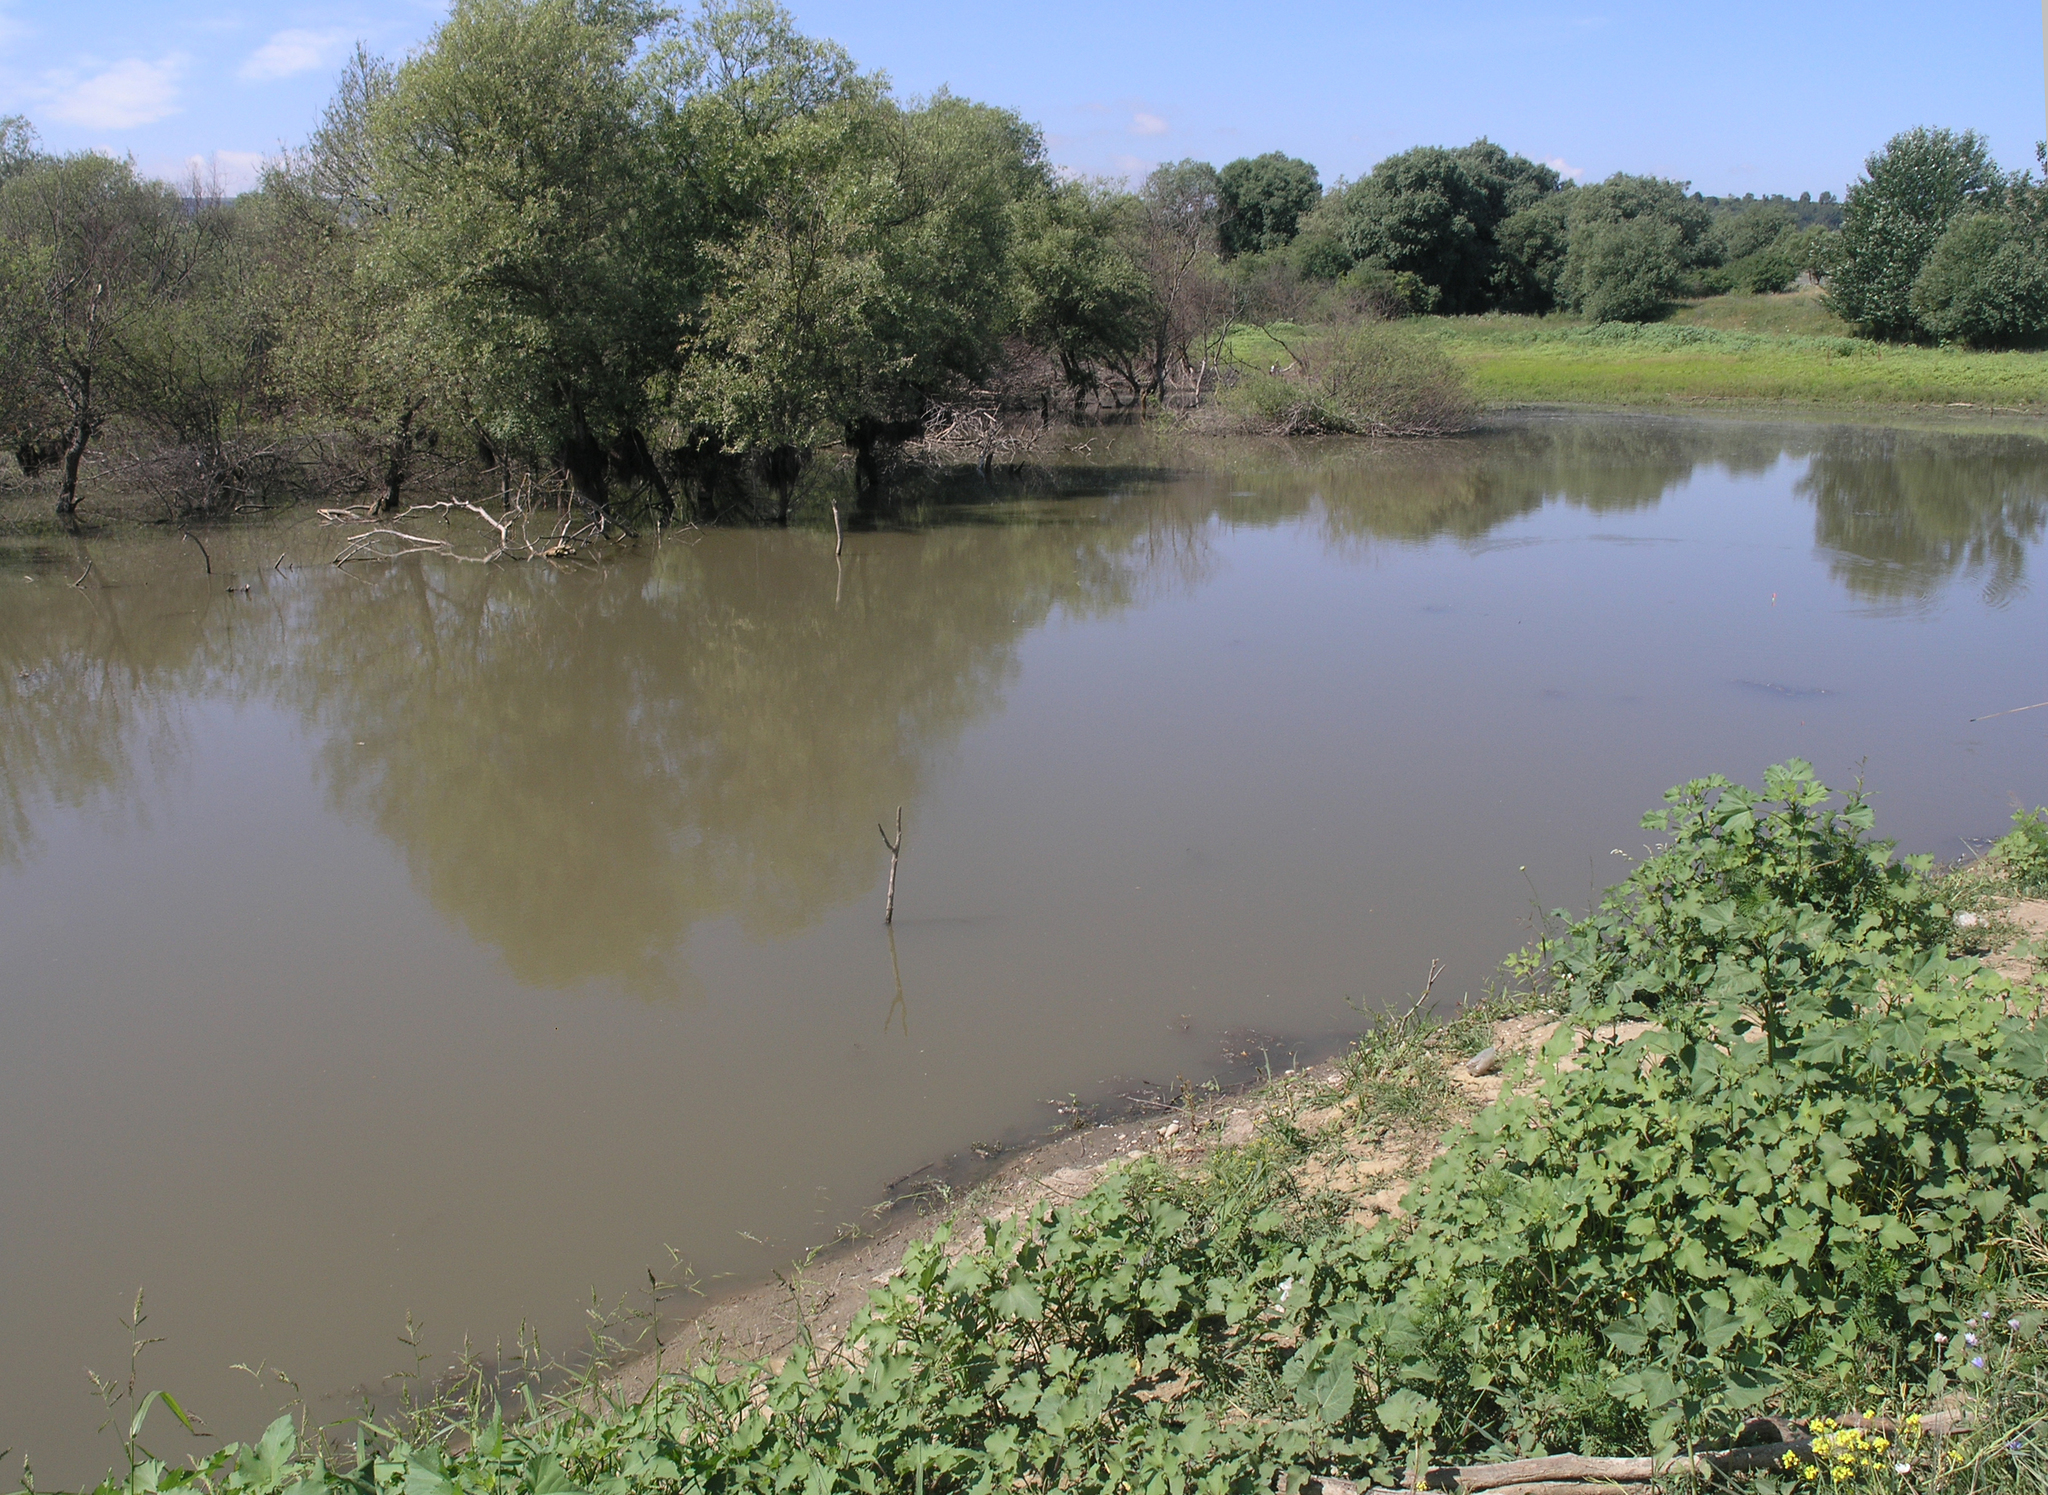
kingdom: Plantae
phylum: Tracheophyta
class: Magnoliopsida
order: Asterales
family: Asteraceae
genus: Cyclachaena
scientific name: Cyclachaena xanthiifolia
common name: Giant sumpweed
